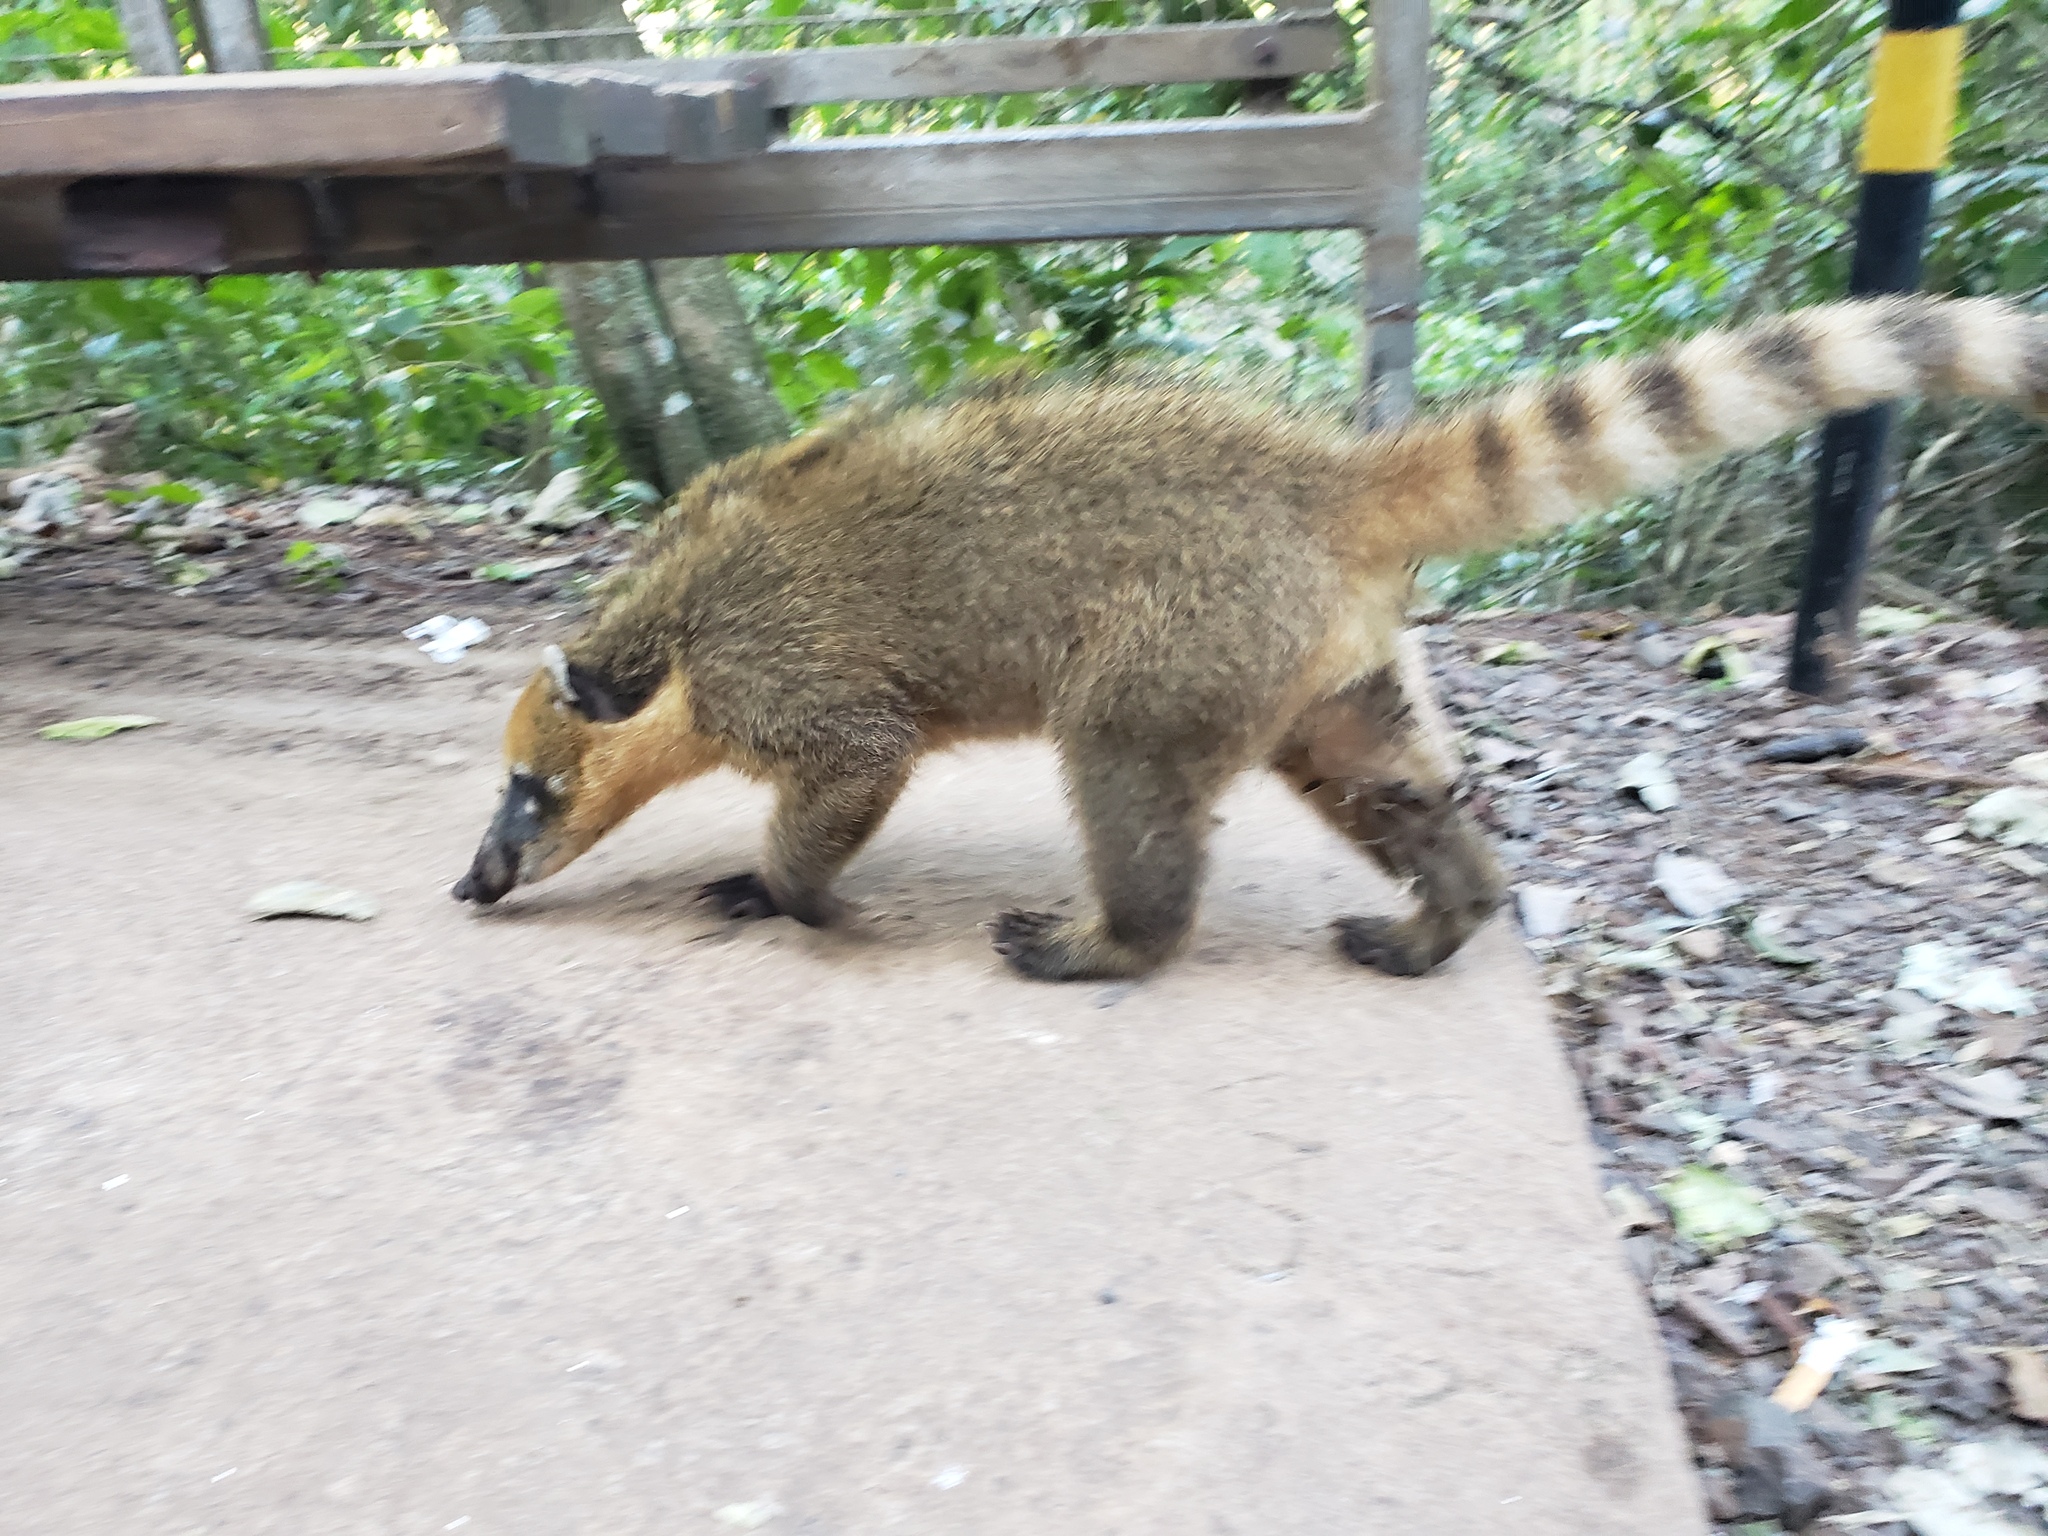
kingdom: Animalia
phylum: Chordata
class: Mammalia
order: Carnivora
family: Procyonidae
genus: Nasua
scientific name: Nasua nasua
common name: South american coati
